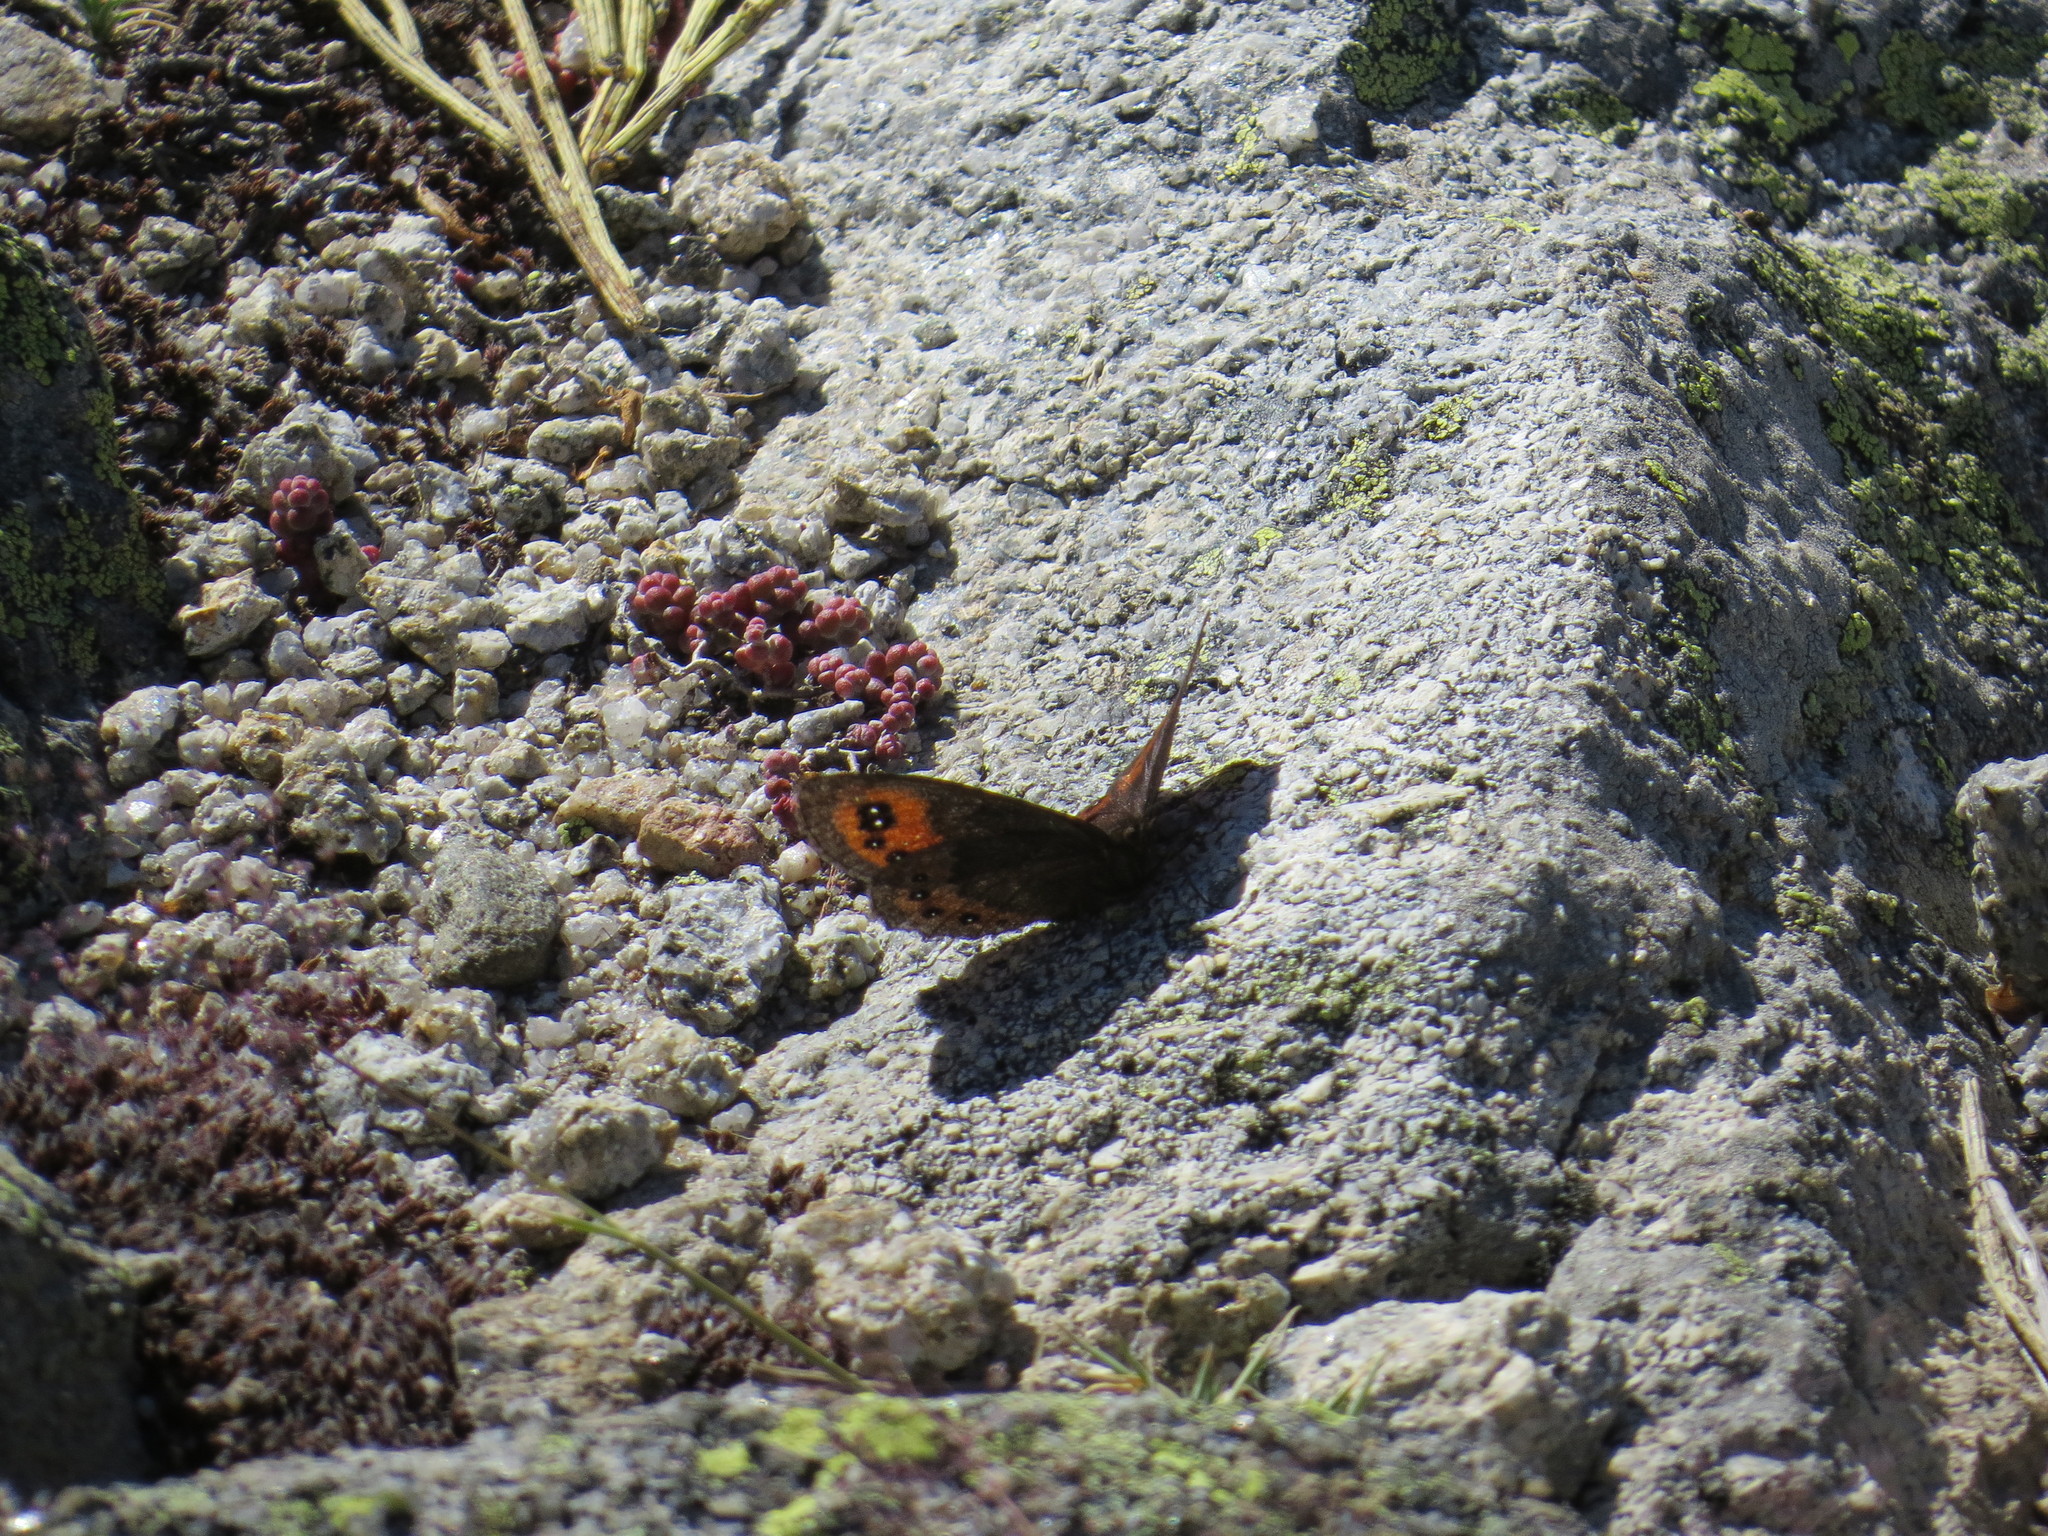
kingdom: Animalia
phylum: Arthropoda
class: Insecta
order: Lepidoptera
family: Nymphalidae
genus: Erebia
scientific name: Erebia meolans
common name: Piedmont ringlet
